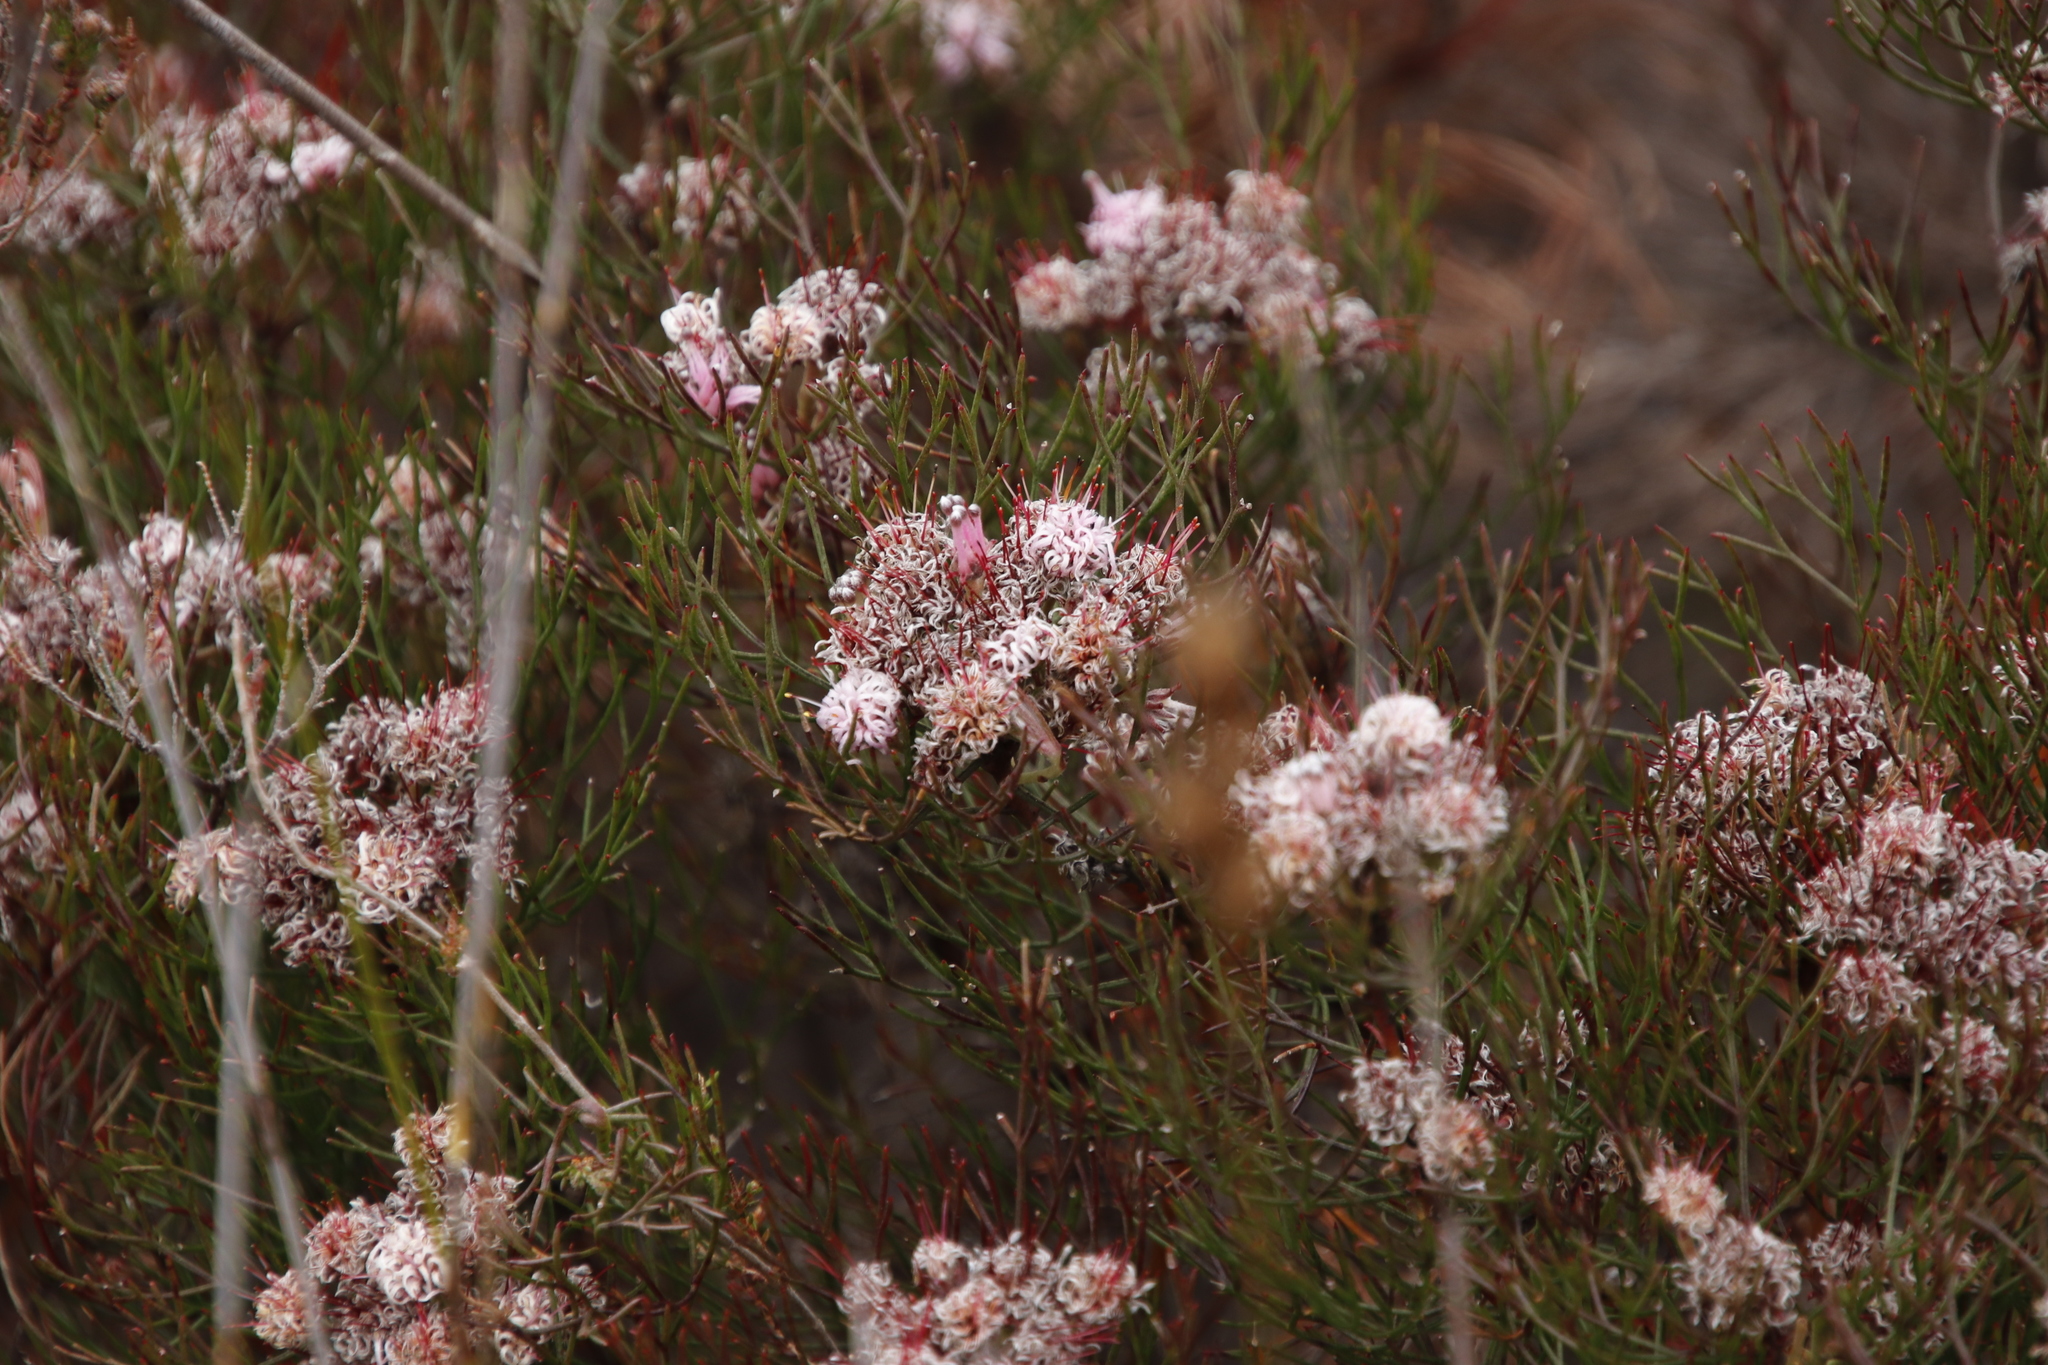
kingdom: Plantae
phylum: Tracheophyta
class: Magnoliopsida
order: Proteales
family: Proteaceae
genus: Serruria
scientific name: Serruria fasciflora
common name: Common pin spiderhead
